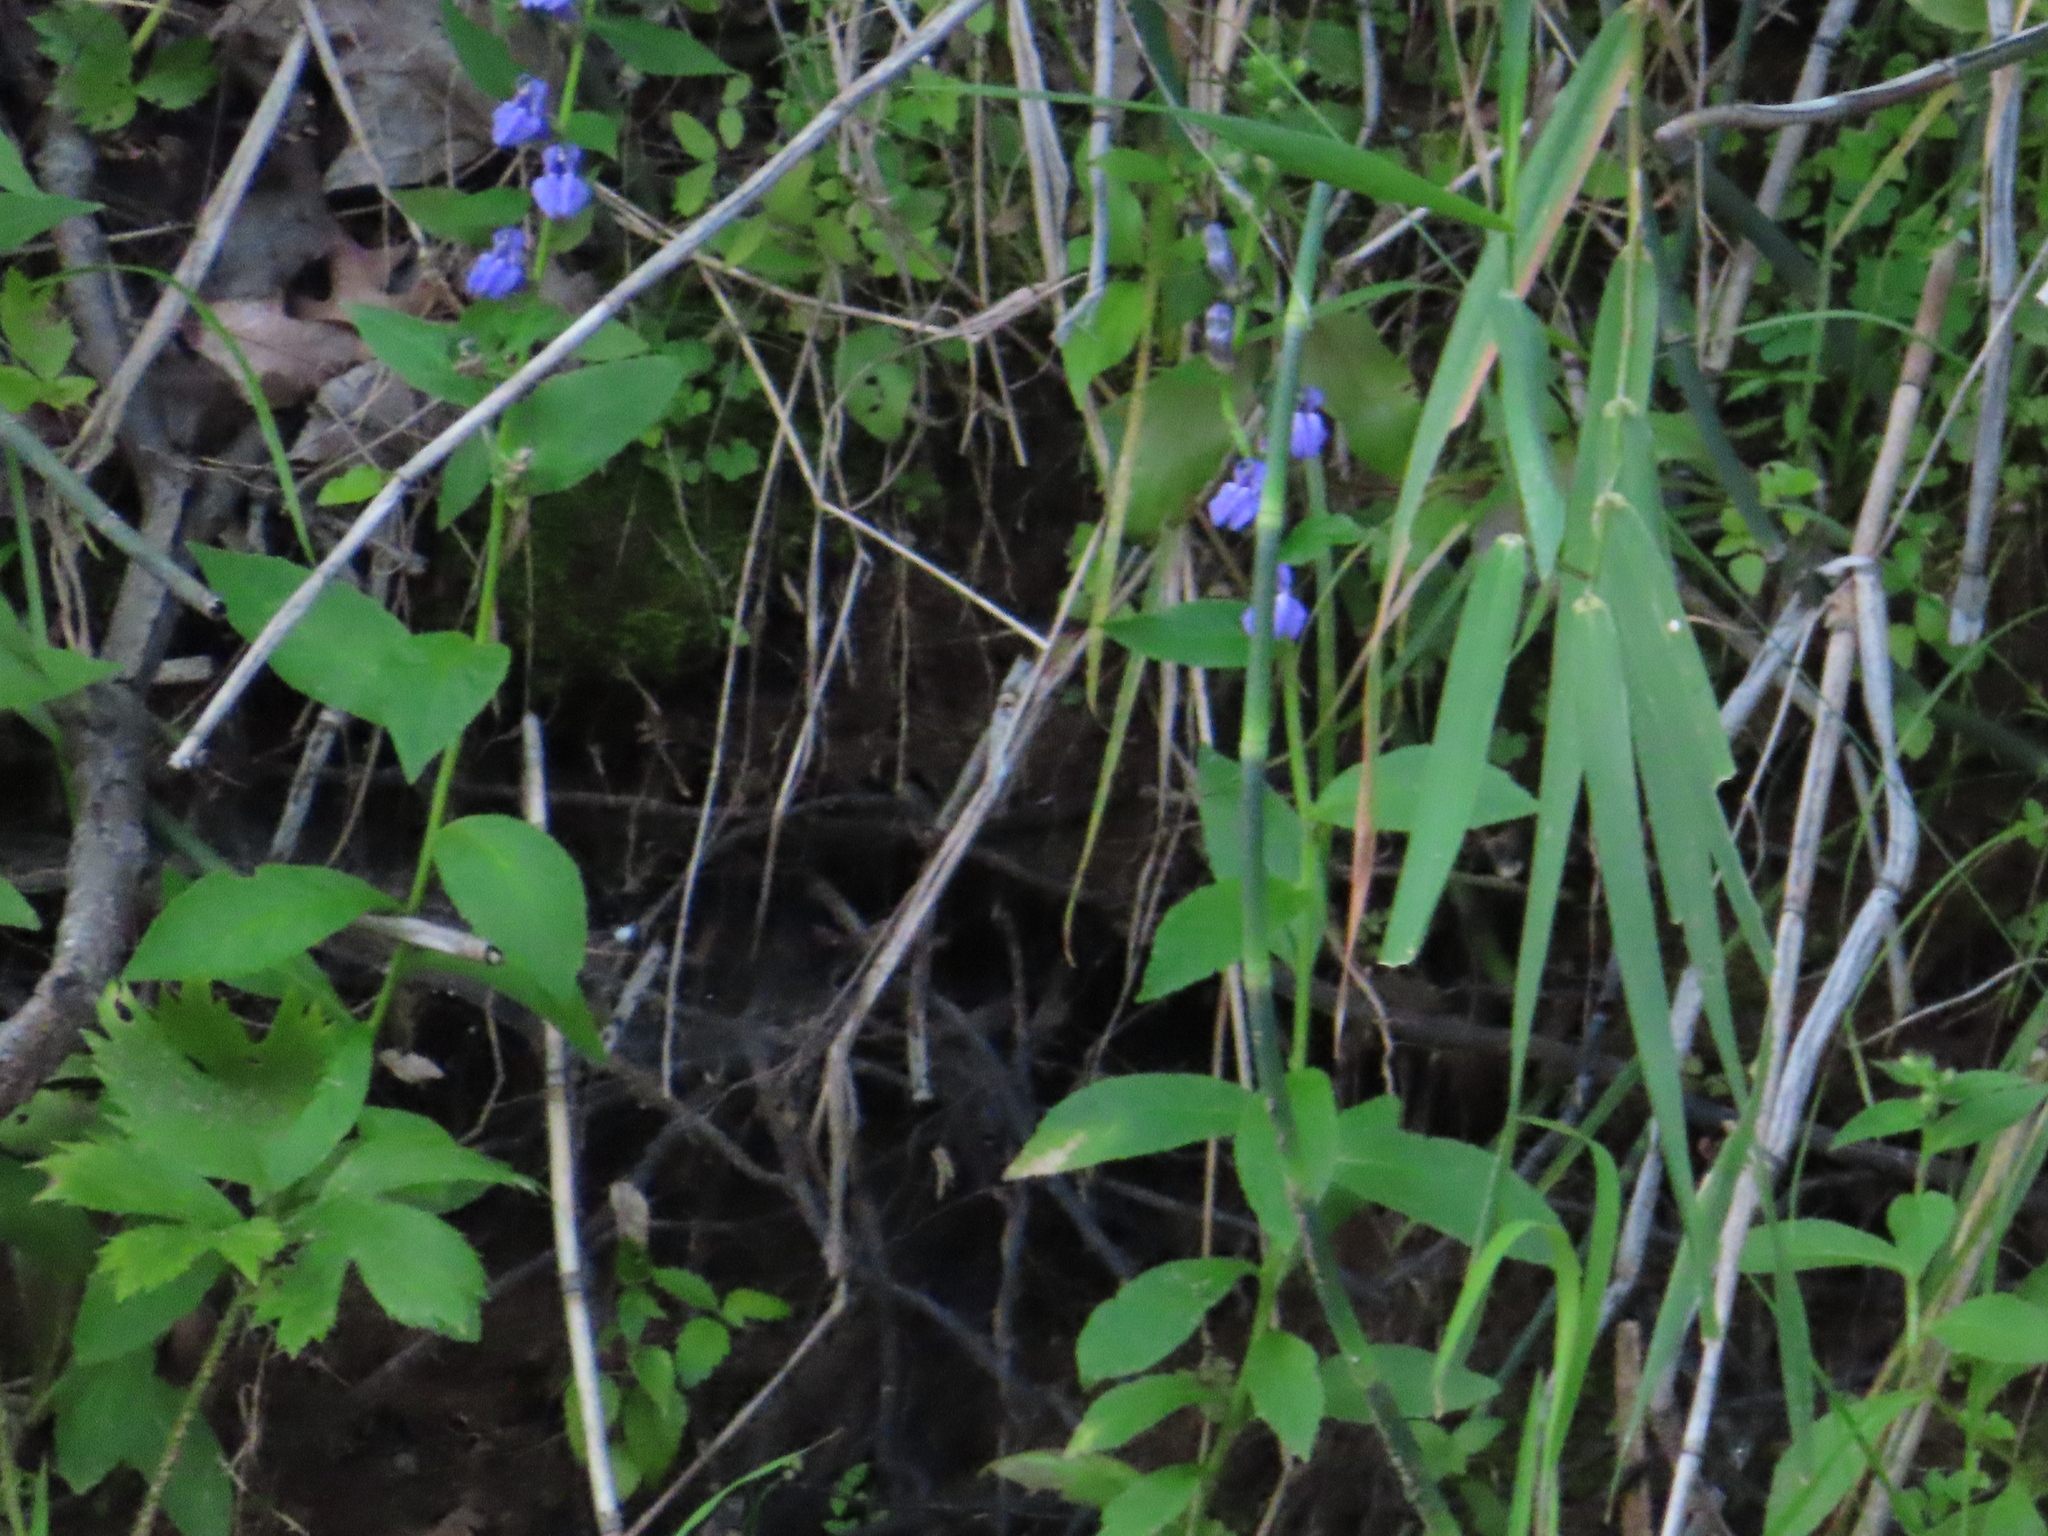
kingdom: Plantae
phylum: Tracheophyta
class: Magnoliopsida
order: Asterales
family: Campanulaceae
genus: Lobelia
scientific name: Lobelia siphilitica
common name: Great lobelia
